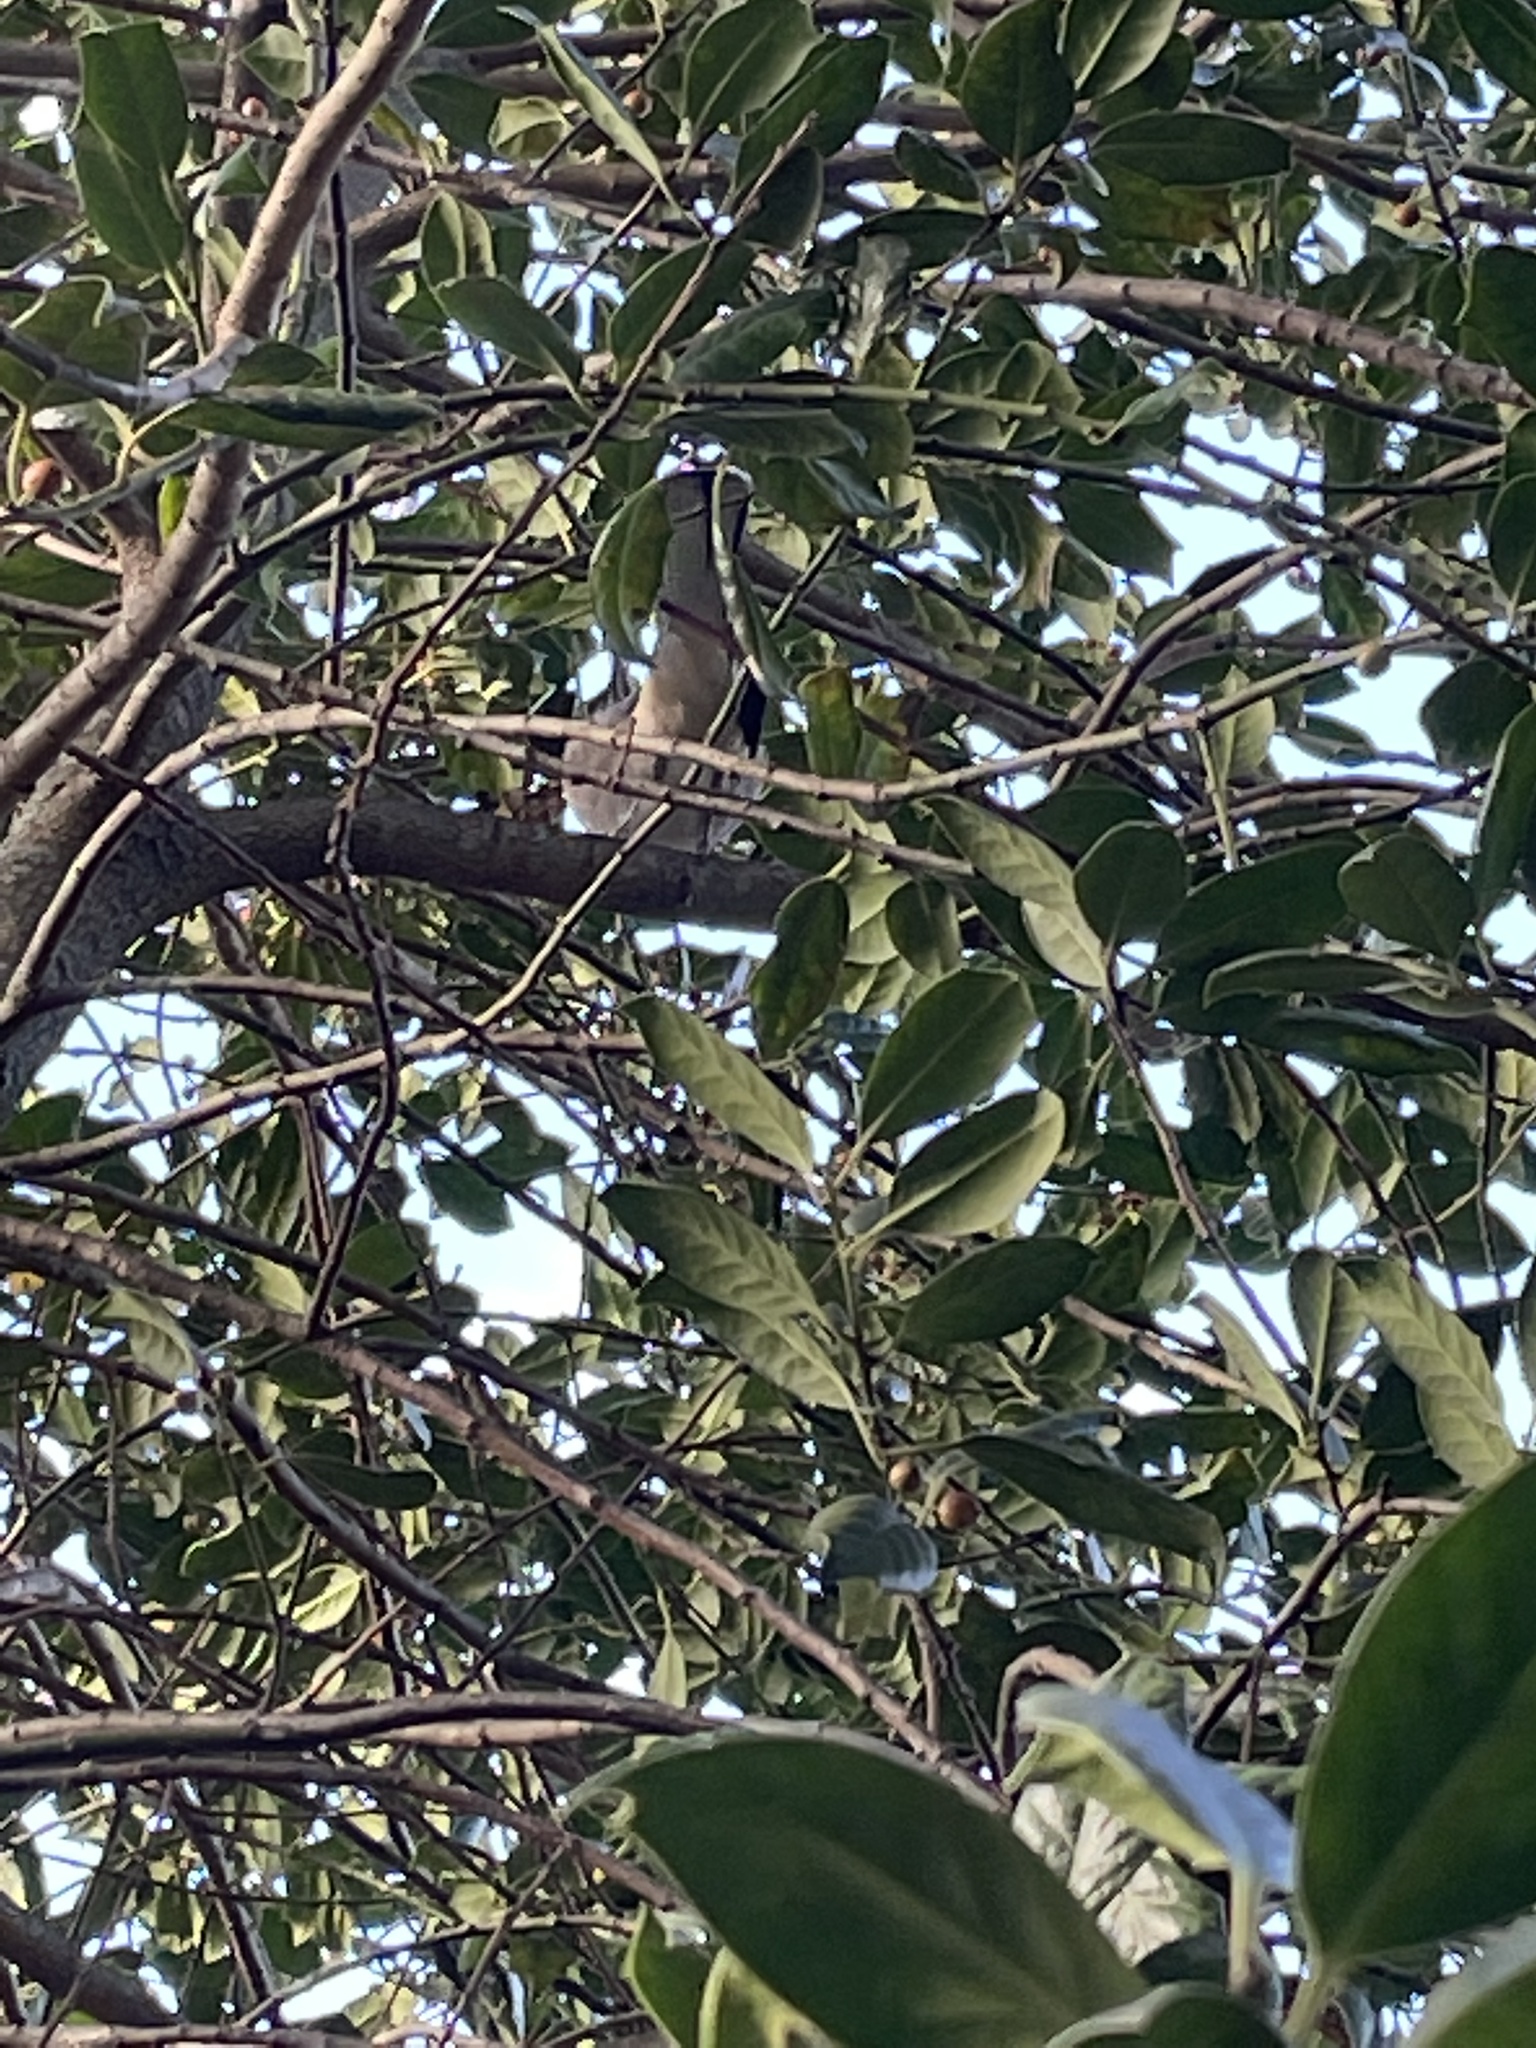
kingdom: Animalia
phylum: Chordata
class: Aves
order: Passeriformes
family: Mimidae
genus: Mimus
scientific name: Mimus polyglottos
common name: Northern mockingbird
